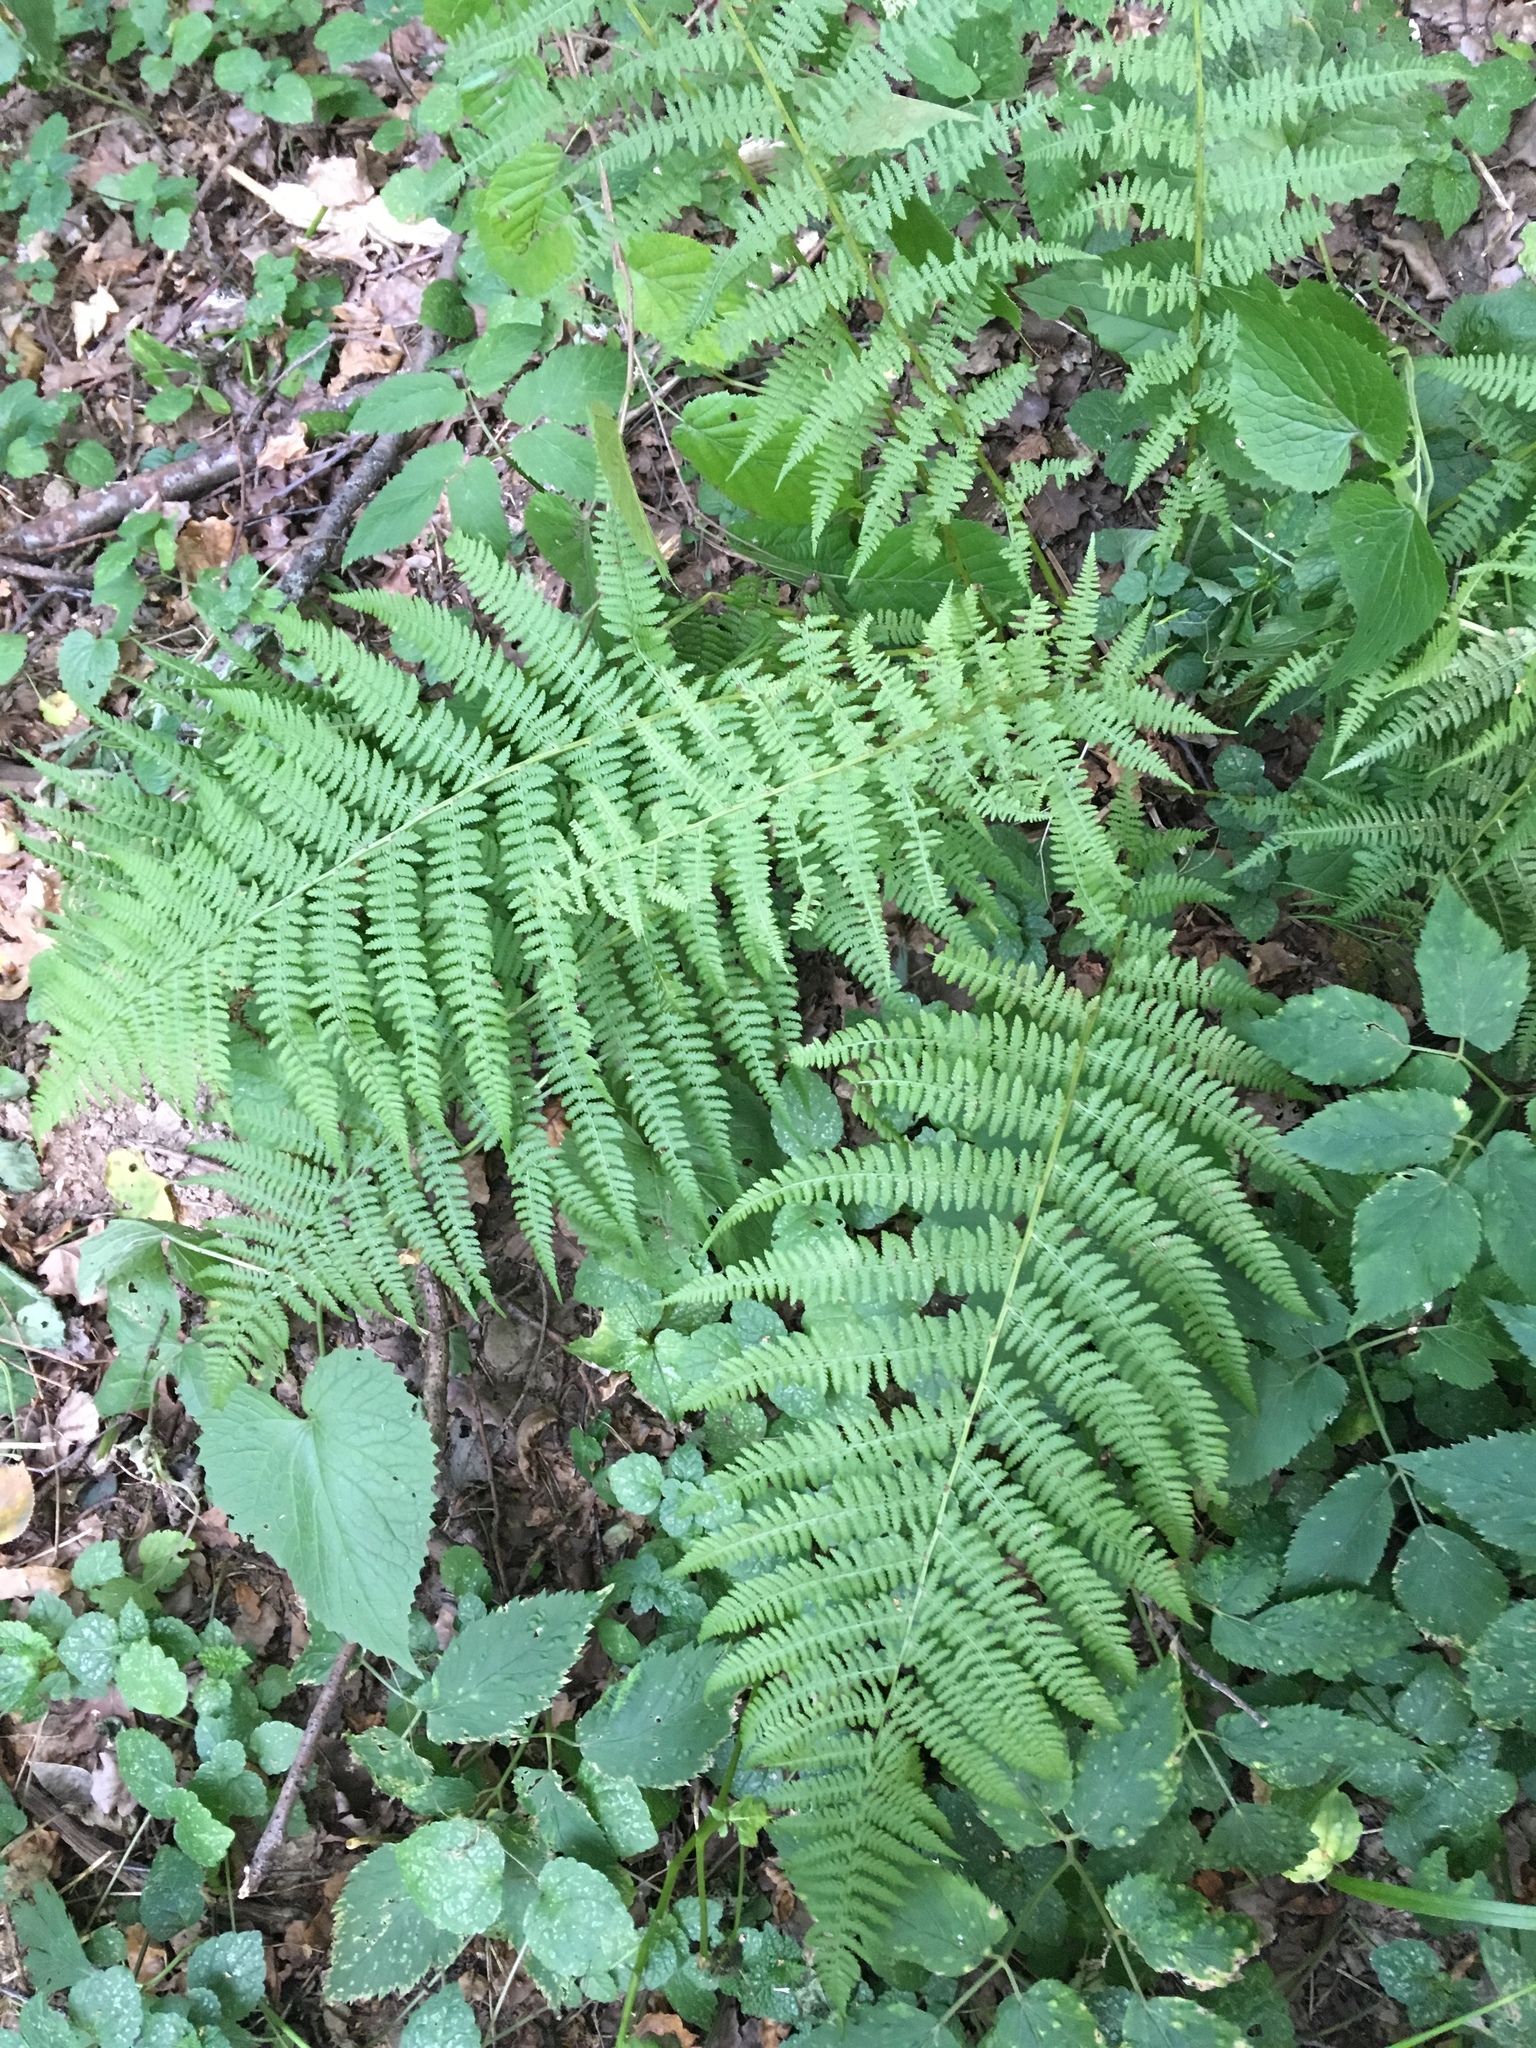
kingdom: Plantae
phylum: Tracheophyta
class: Polypodiopsida
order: Polypodiales
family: Athyriaceae
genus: Athyrium
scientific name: Athyrium filix-femina
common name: Lady fern
